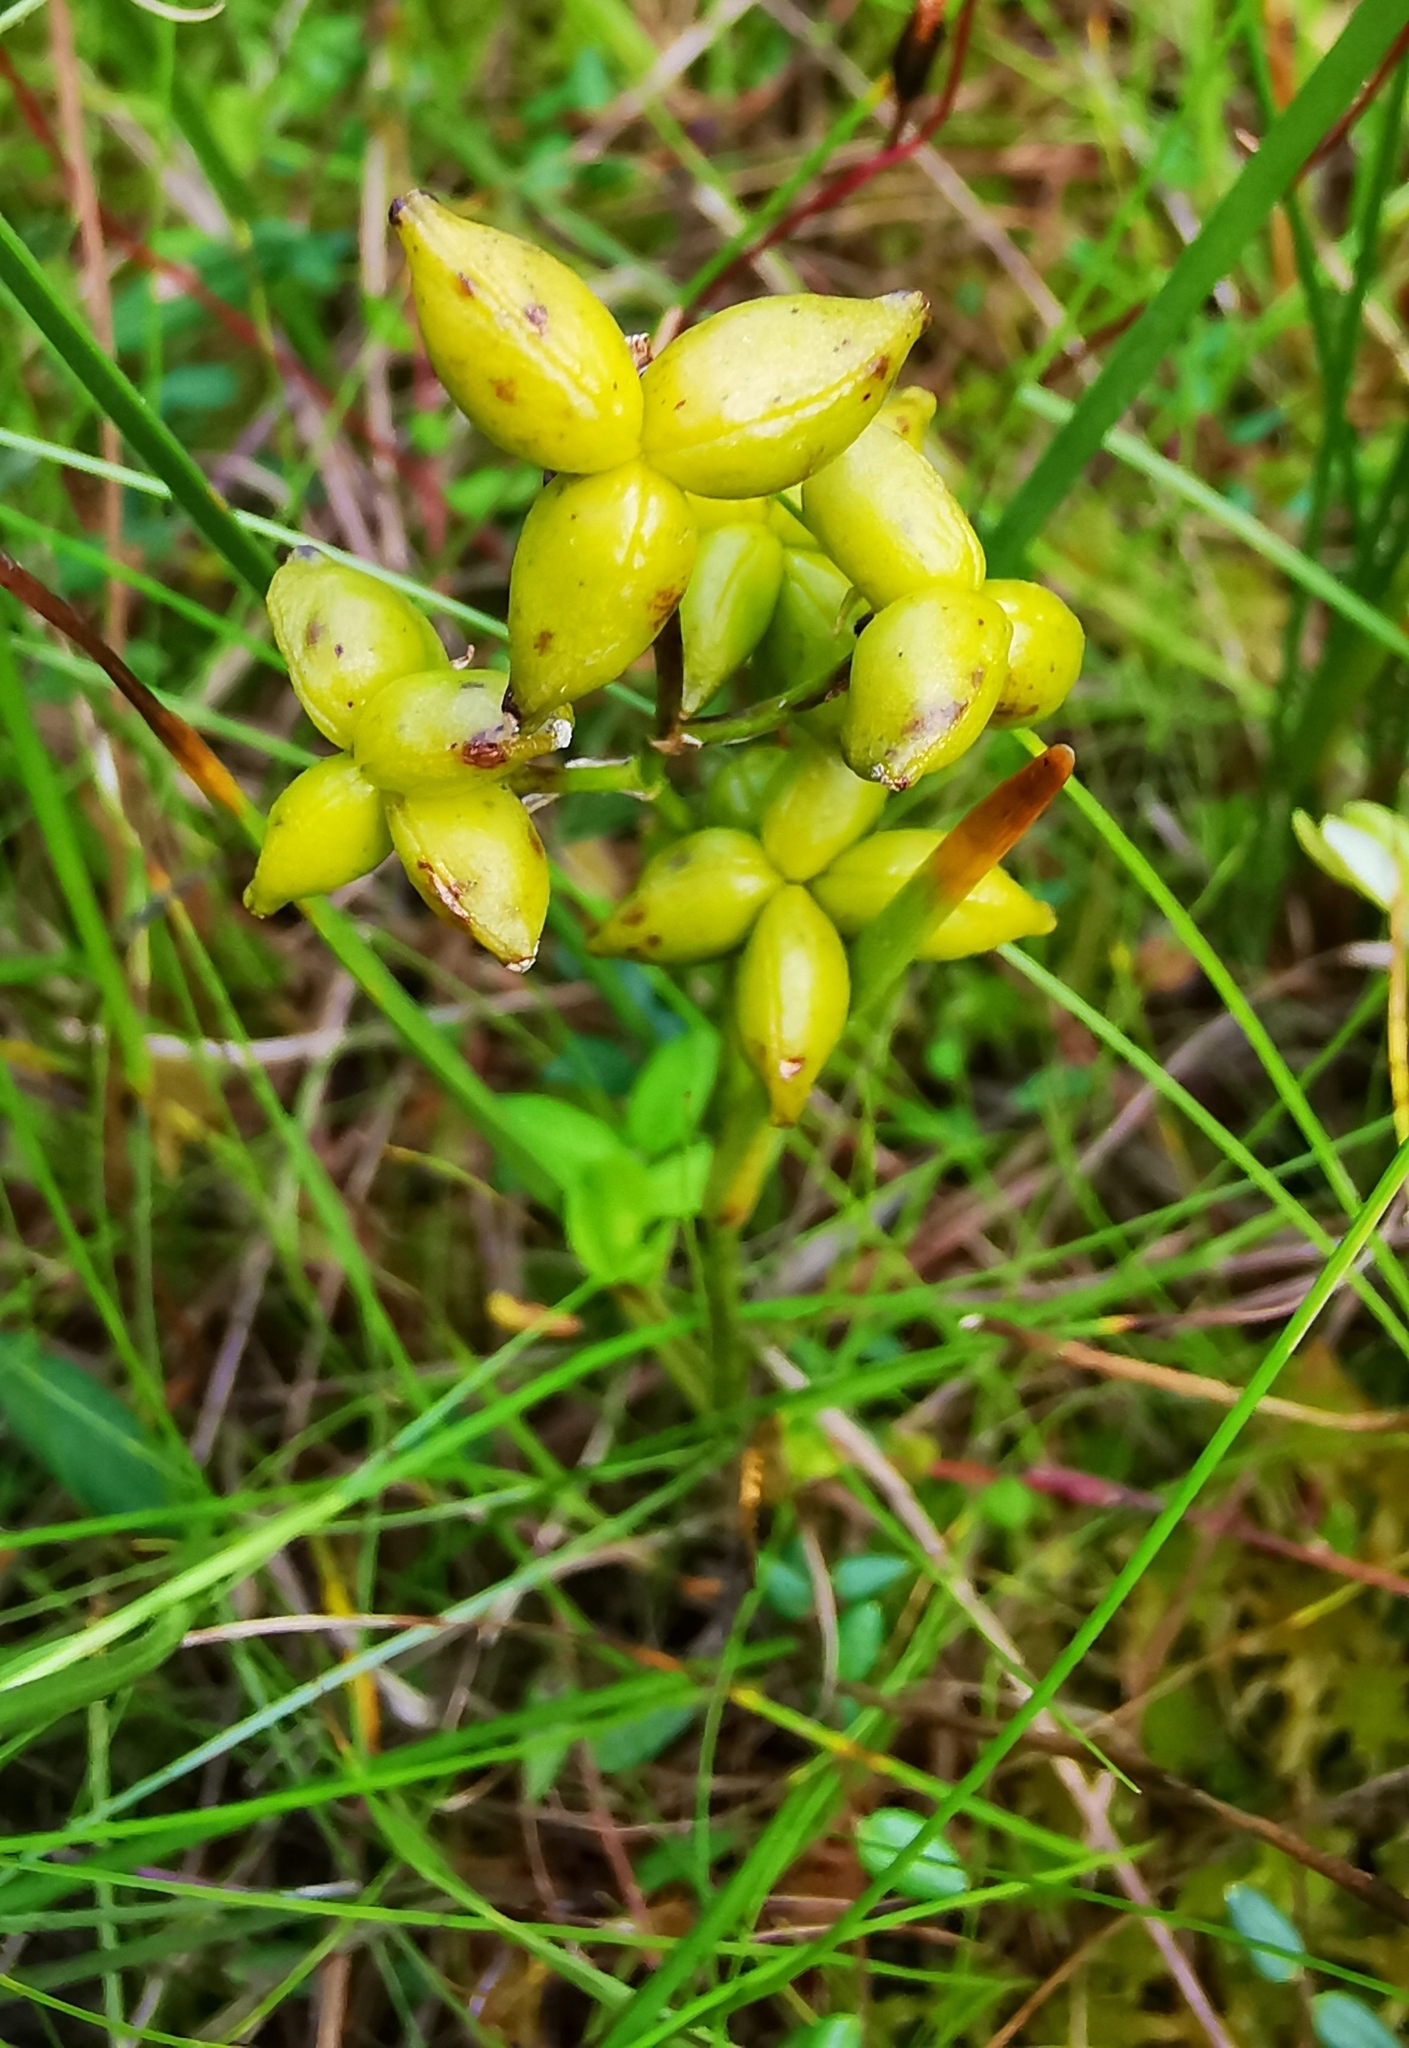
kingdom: Plantae
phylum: Tracheophyta
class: Liliopsida
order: Alismatales
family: Scheuchzeriaceae
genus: Scheuchzeria
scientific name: Scheuchzeria palustris
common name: Rannoch-rush
